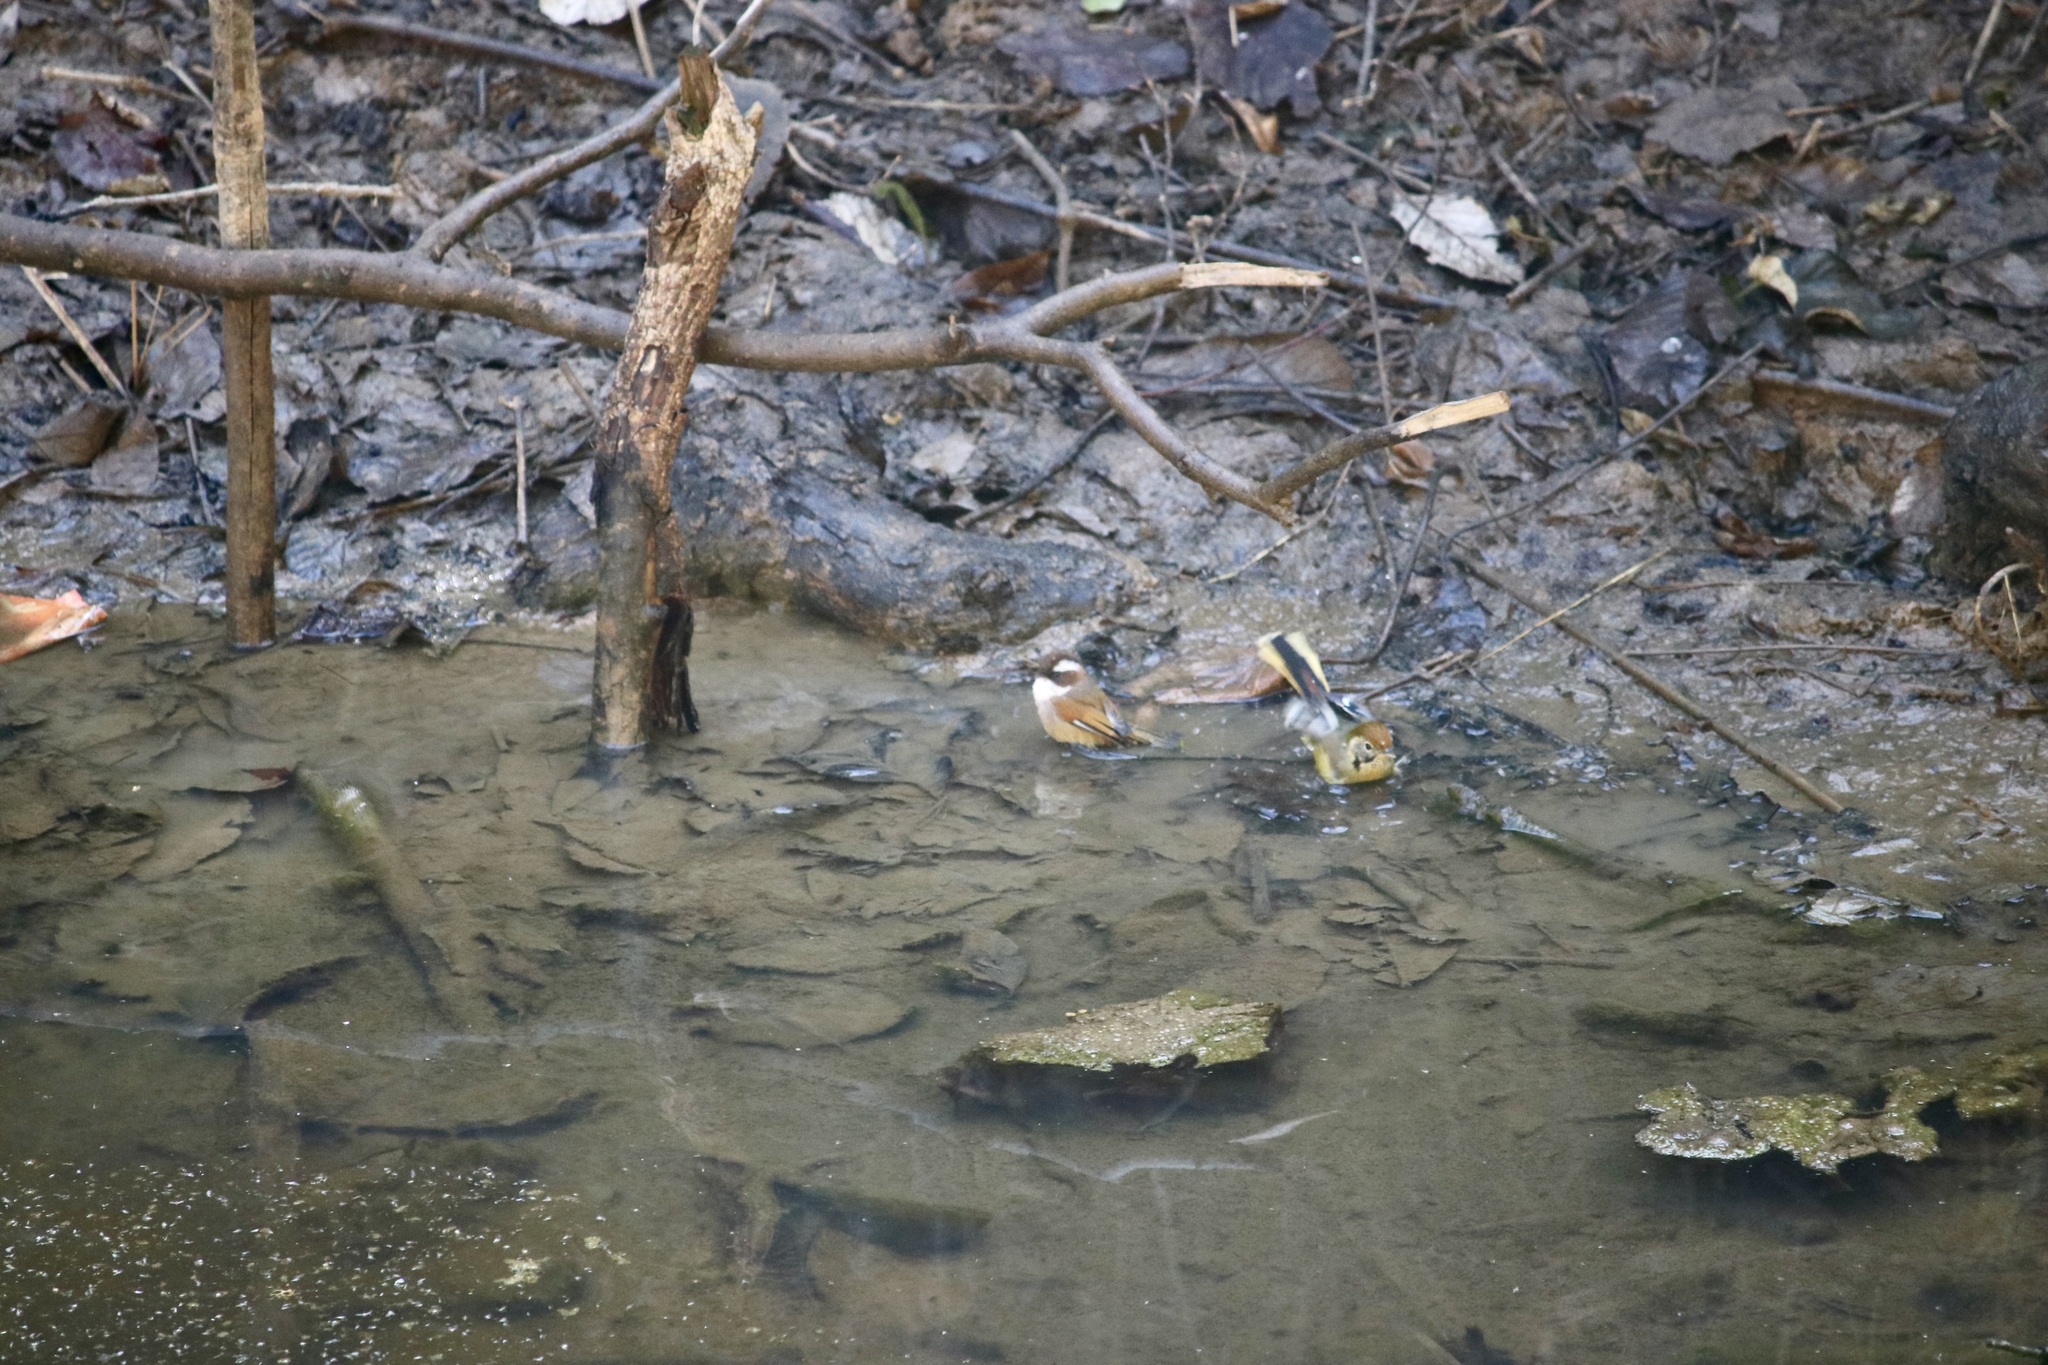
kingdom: Animalia
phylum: Chordata
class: Aves
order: Passeriformes
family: Sylviidae
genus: Fulvetta
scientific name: Fulvetta vinipectus
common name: White-browed fulvetta
